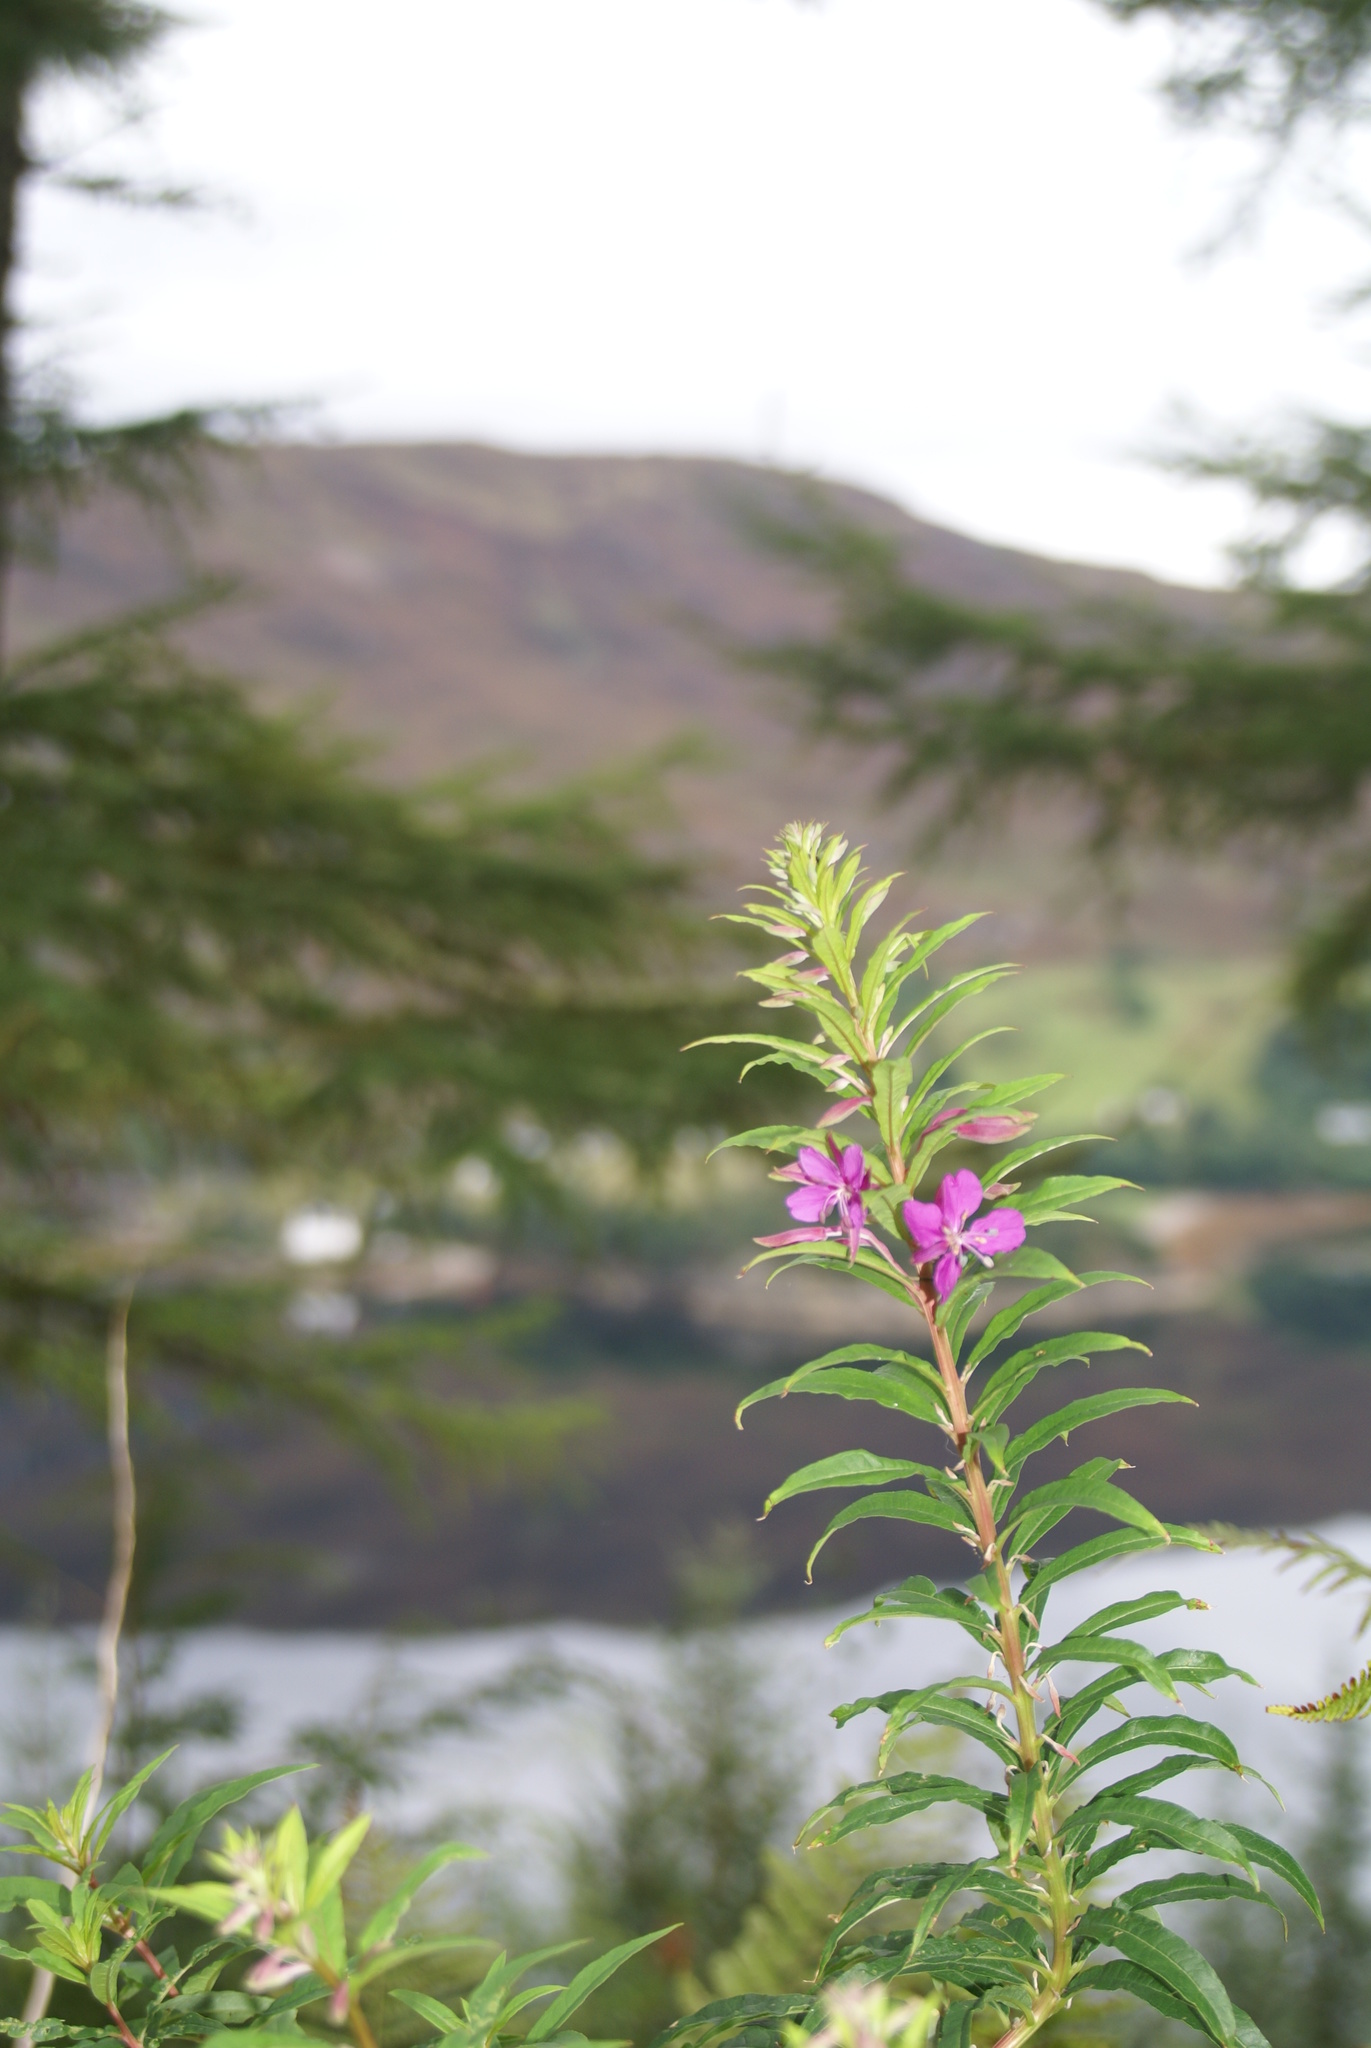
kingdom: Plantae
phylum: Tracheophyta
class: Magnoliopsida
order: Myrtales
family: Onagraceae
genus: Chamaenerion
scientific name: Chamaenerion angustifolium
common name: Fireweed
